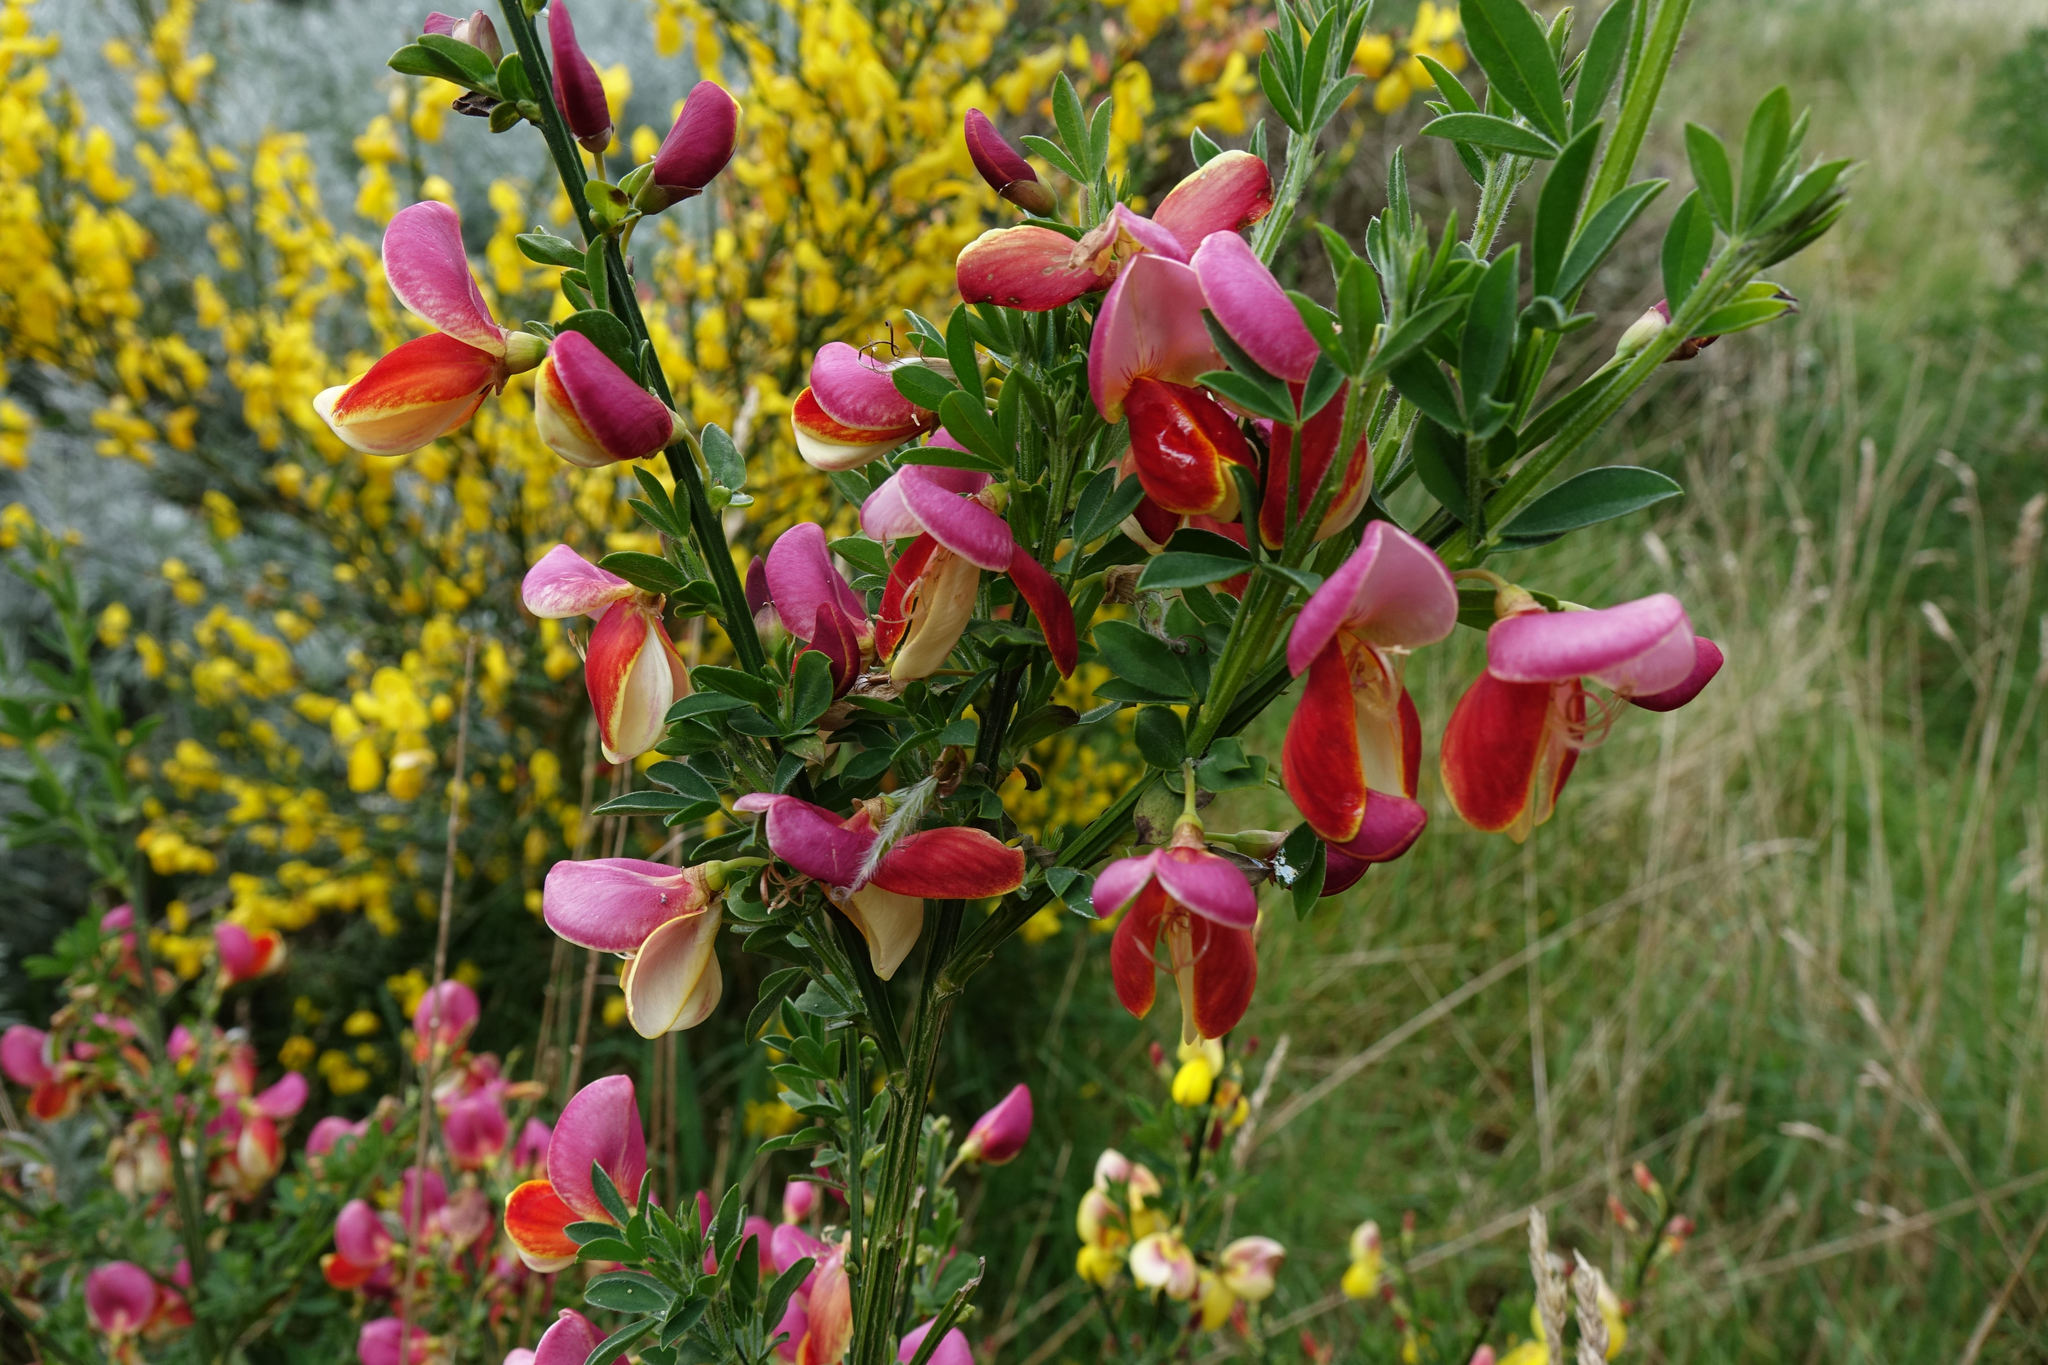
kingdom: Plantae
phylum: Tracheophyta
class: Magnoliopsida
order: Fabales
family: Fabaceae
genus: Cytisus
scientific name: Cytisus scoparius
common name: Scotch broom
